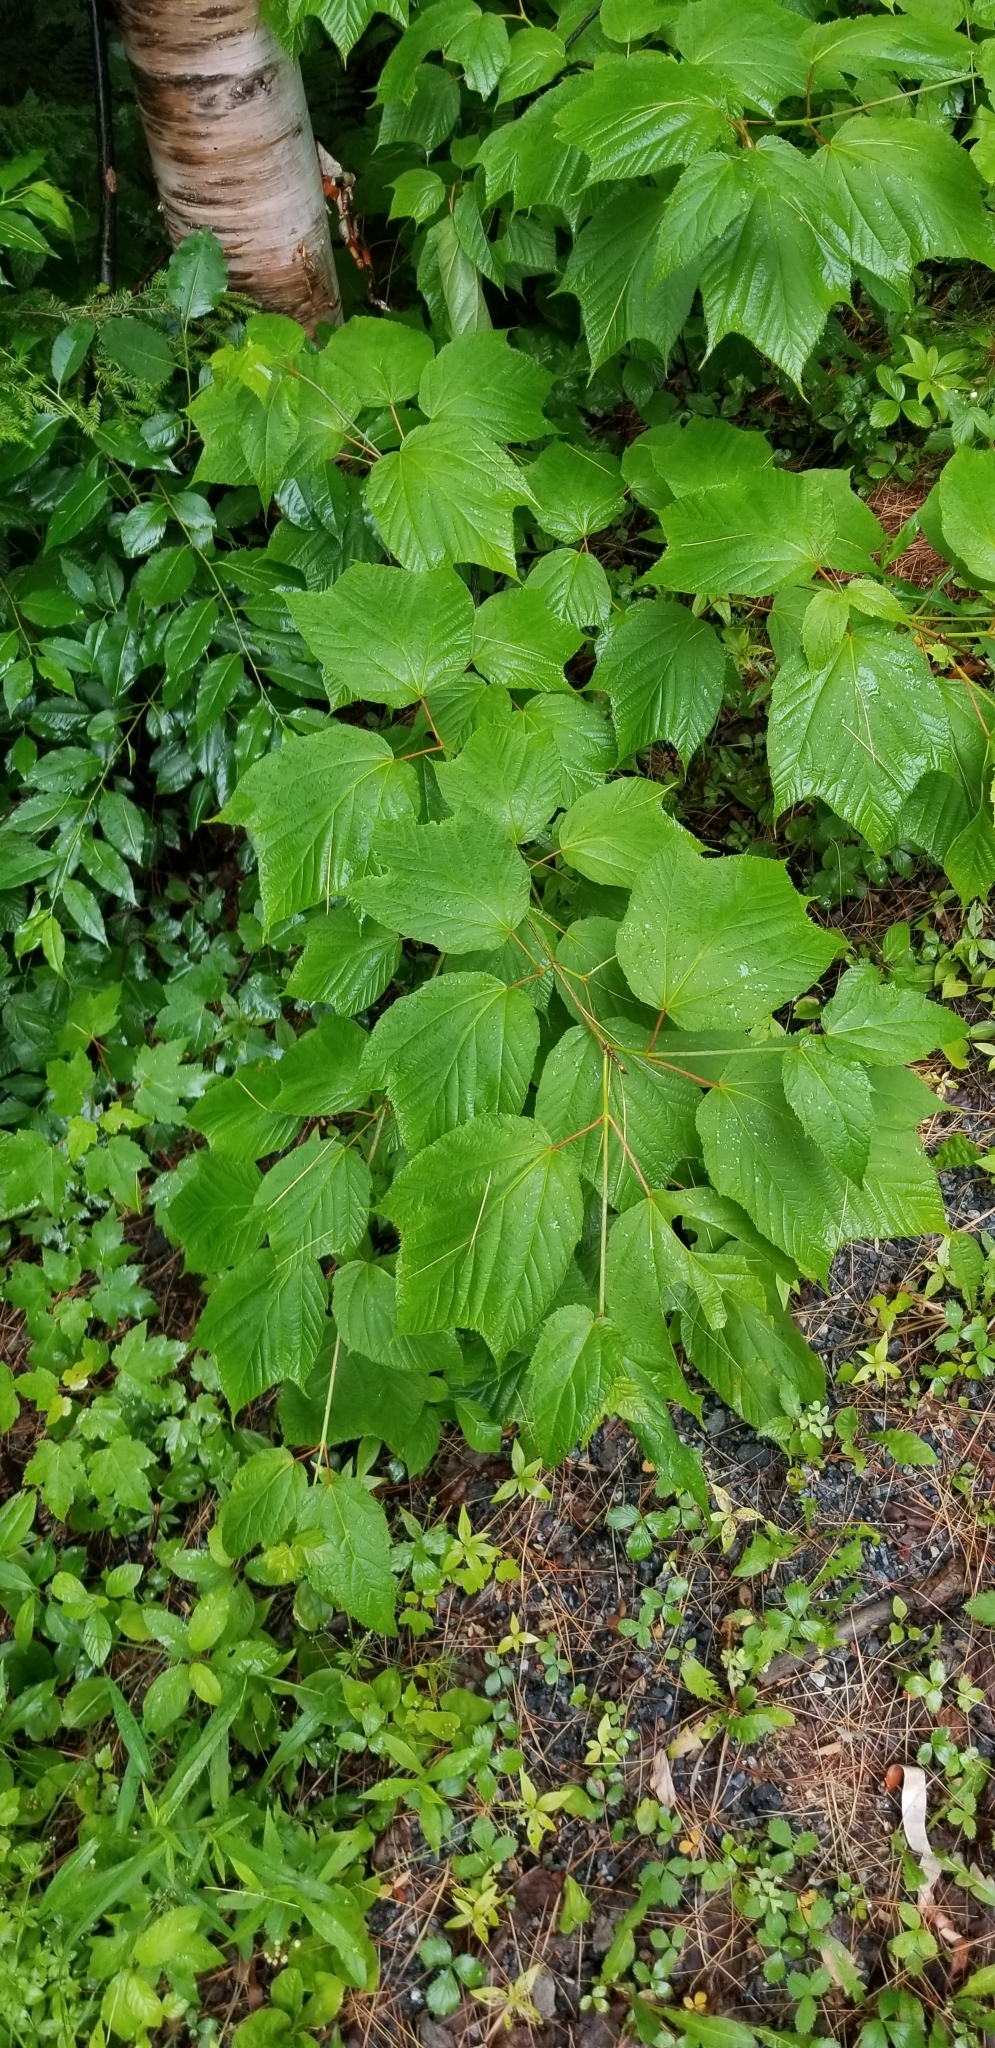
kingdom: Plantae
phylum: Tracheophyta
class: Magnoliopsida
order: Sapindales
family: Sapindaceae
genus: Acer
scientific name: Acer pensylvanicum
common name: Moosewood
